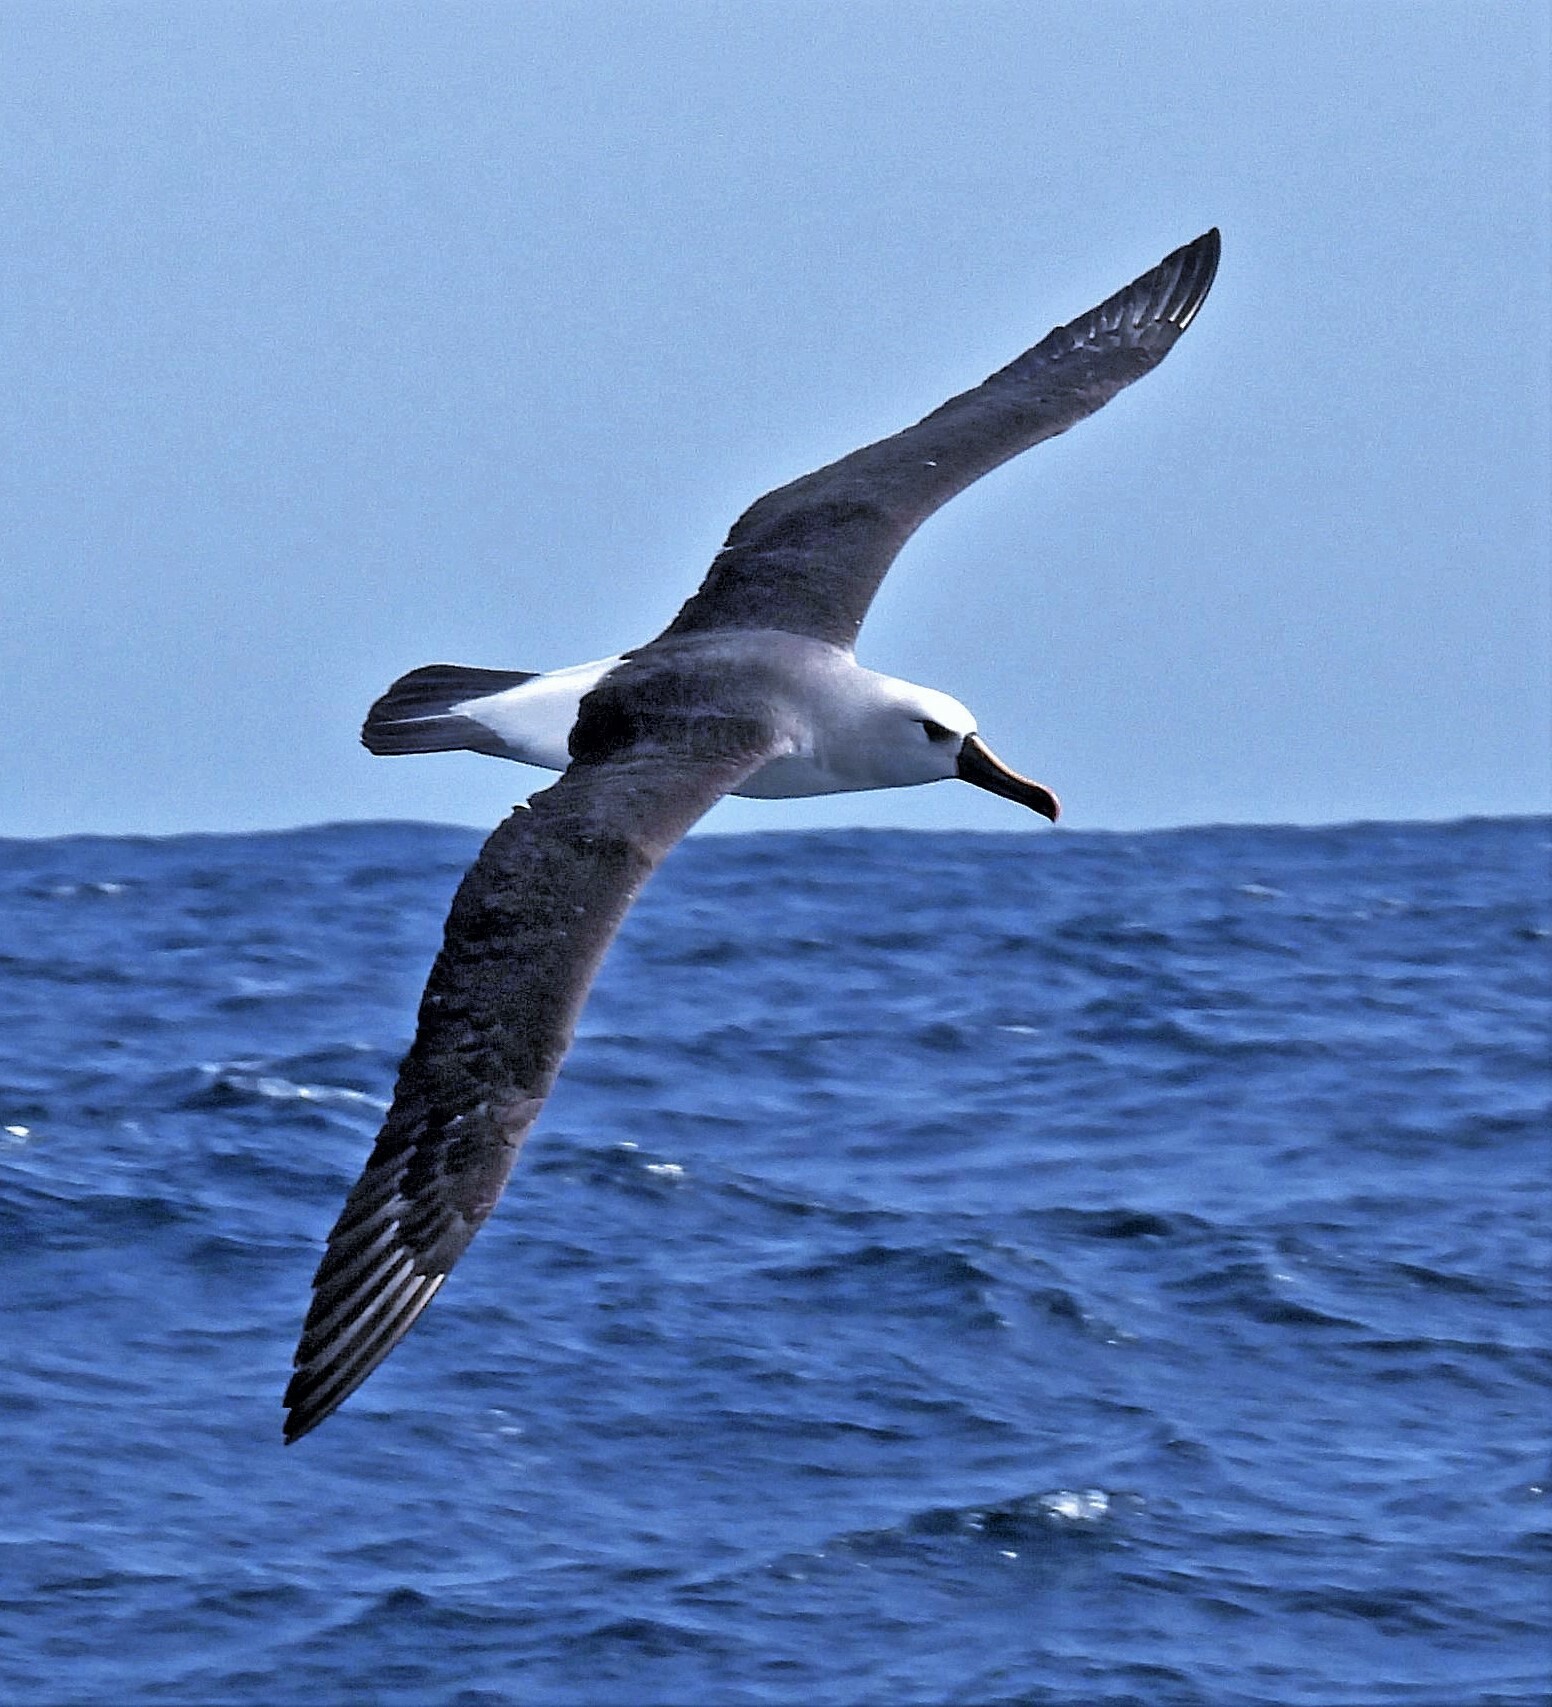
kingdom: Animalia
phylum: Chordata
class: Aves
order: Procellariiformes
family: Diomedeidae
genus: Thalassarche
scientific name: Thalassarche chlororhynchos
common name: Atlantic yellow-nosed albatross
